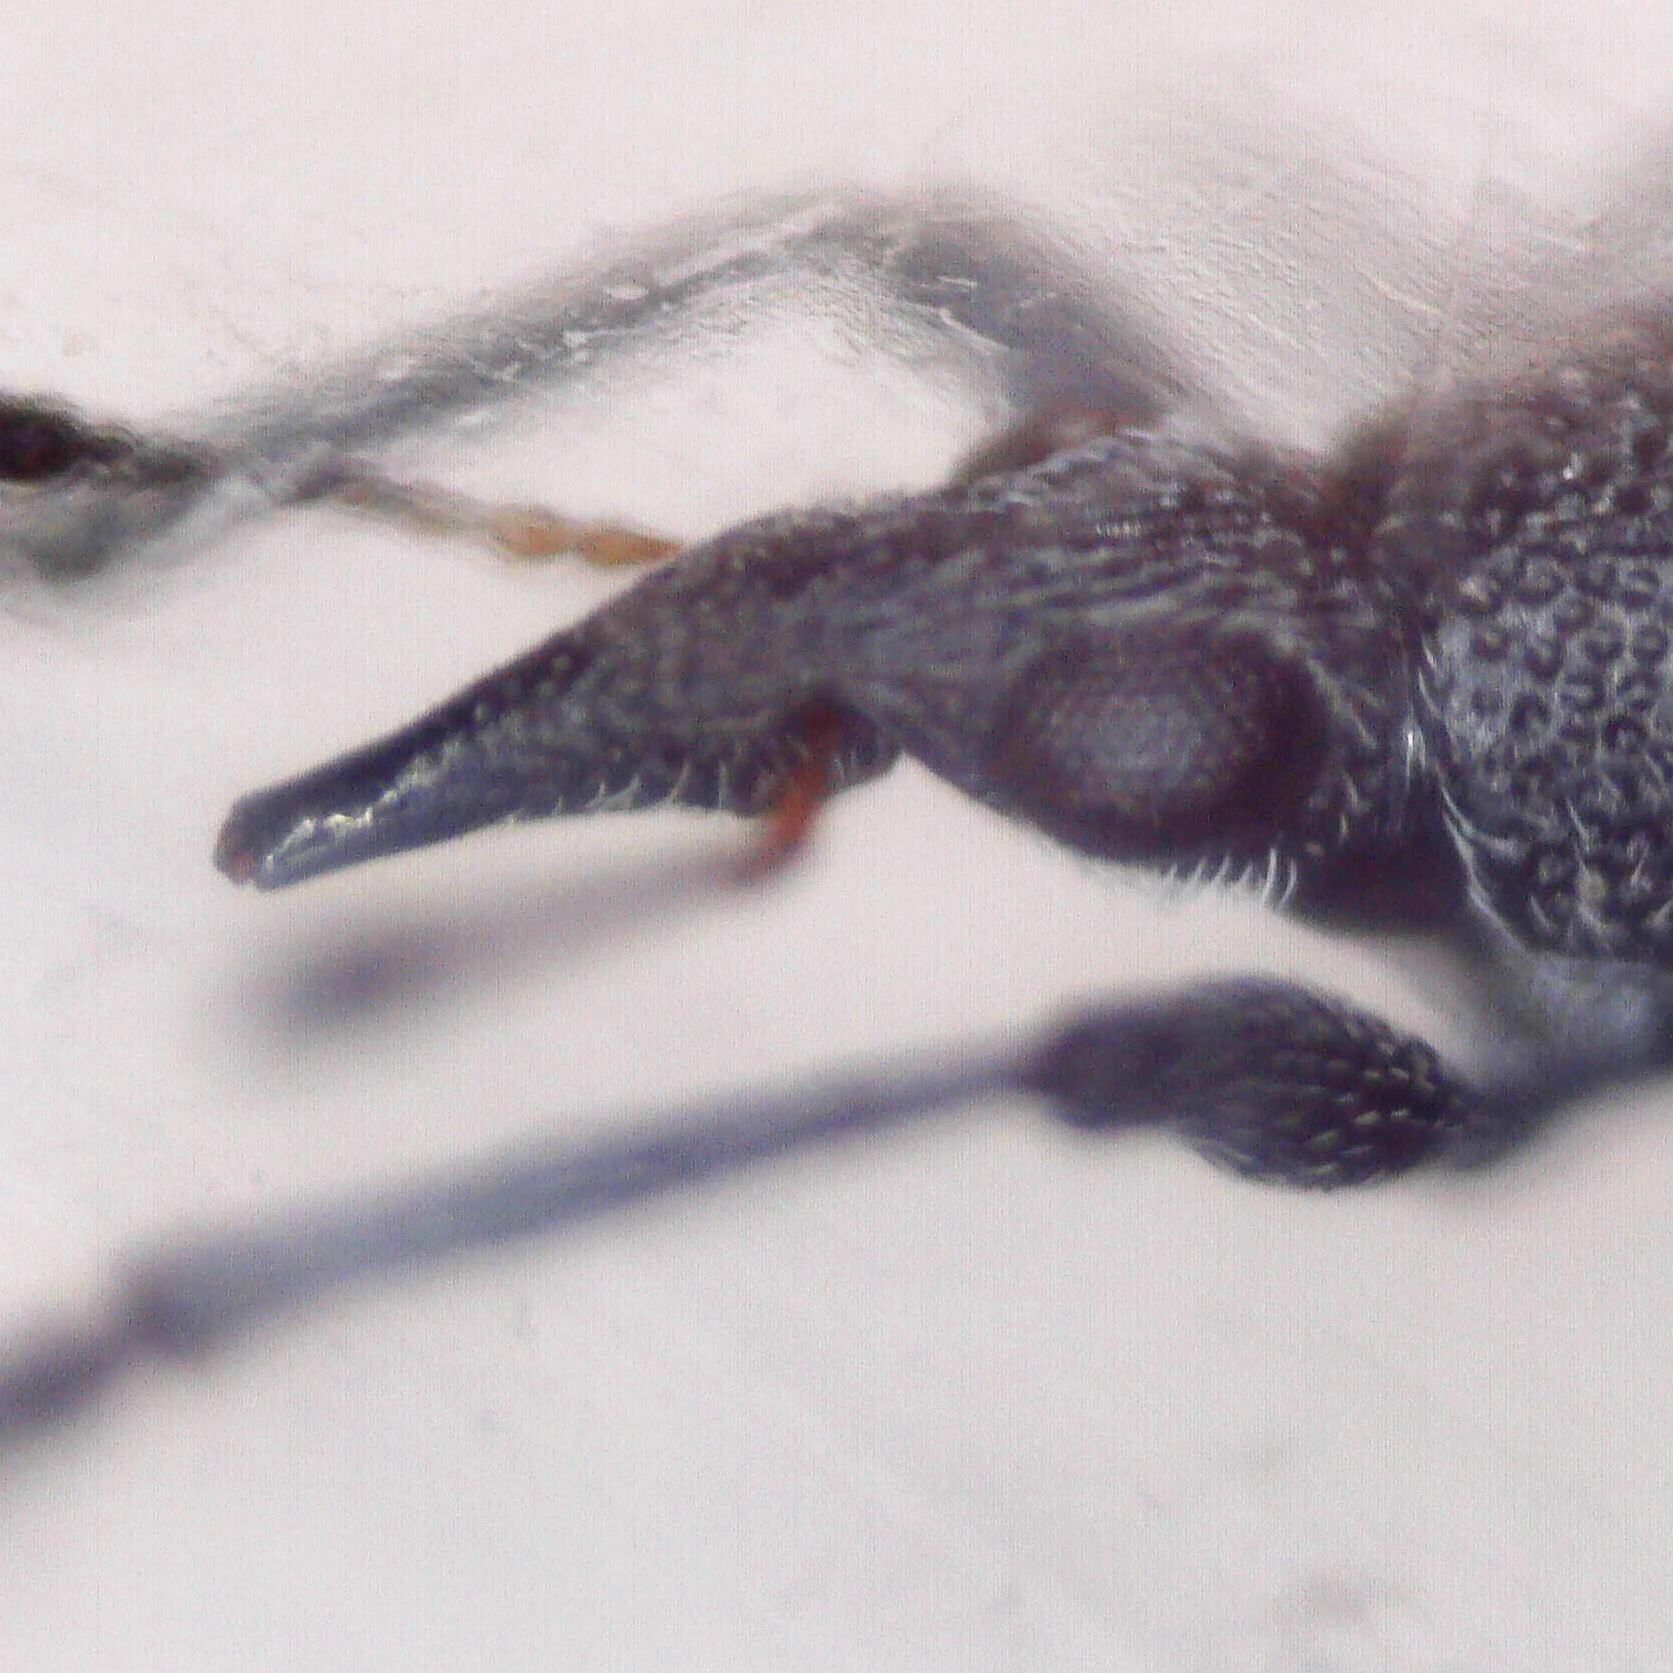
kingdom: Animalia
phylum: Arthropoda
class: Insecta
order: Coleoptera
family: Apionidae
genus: Oxystoma
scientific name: Oxystoma craccae
